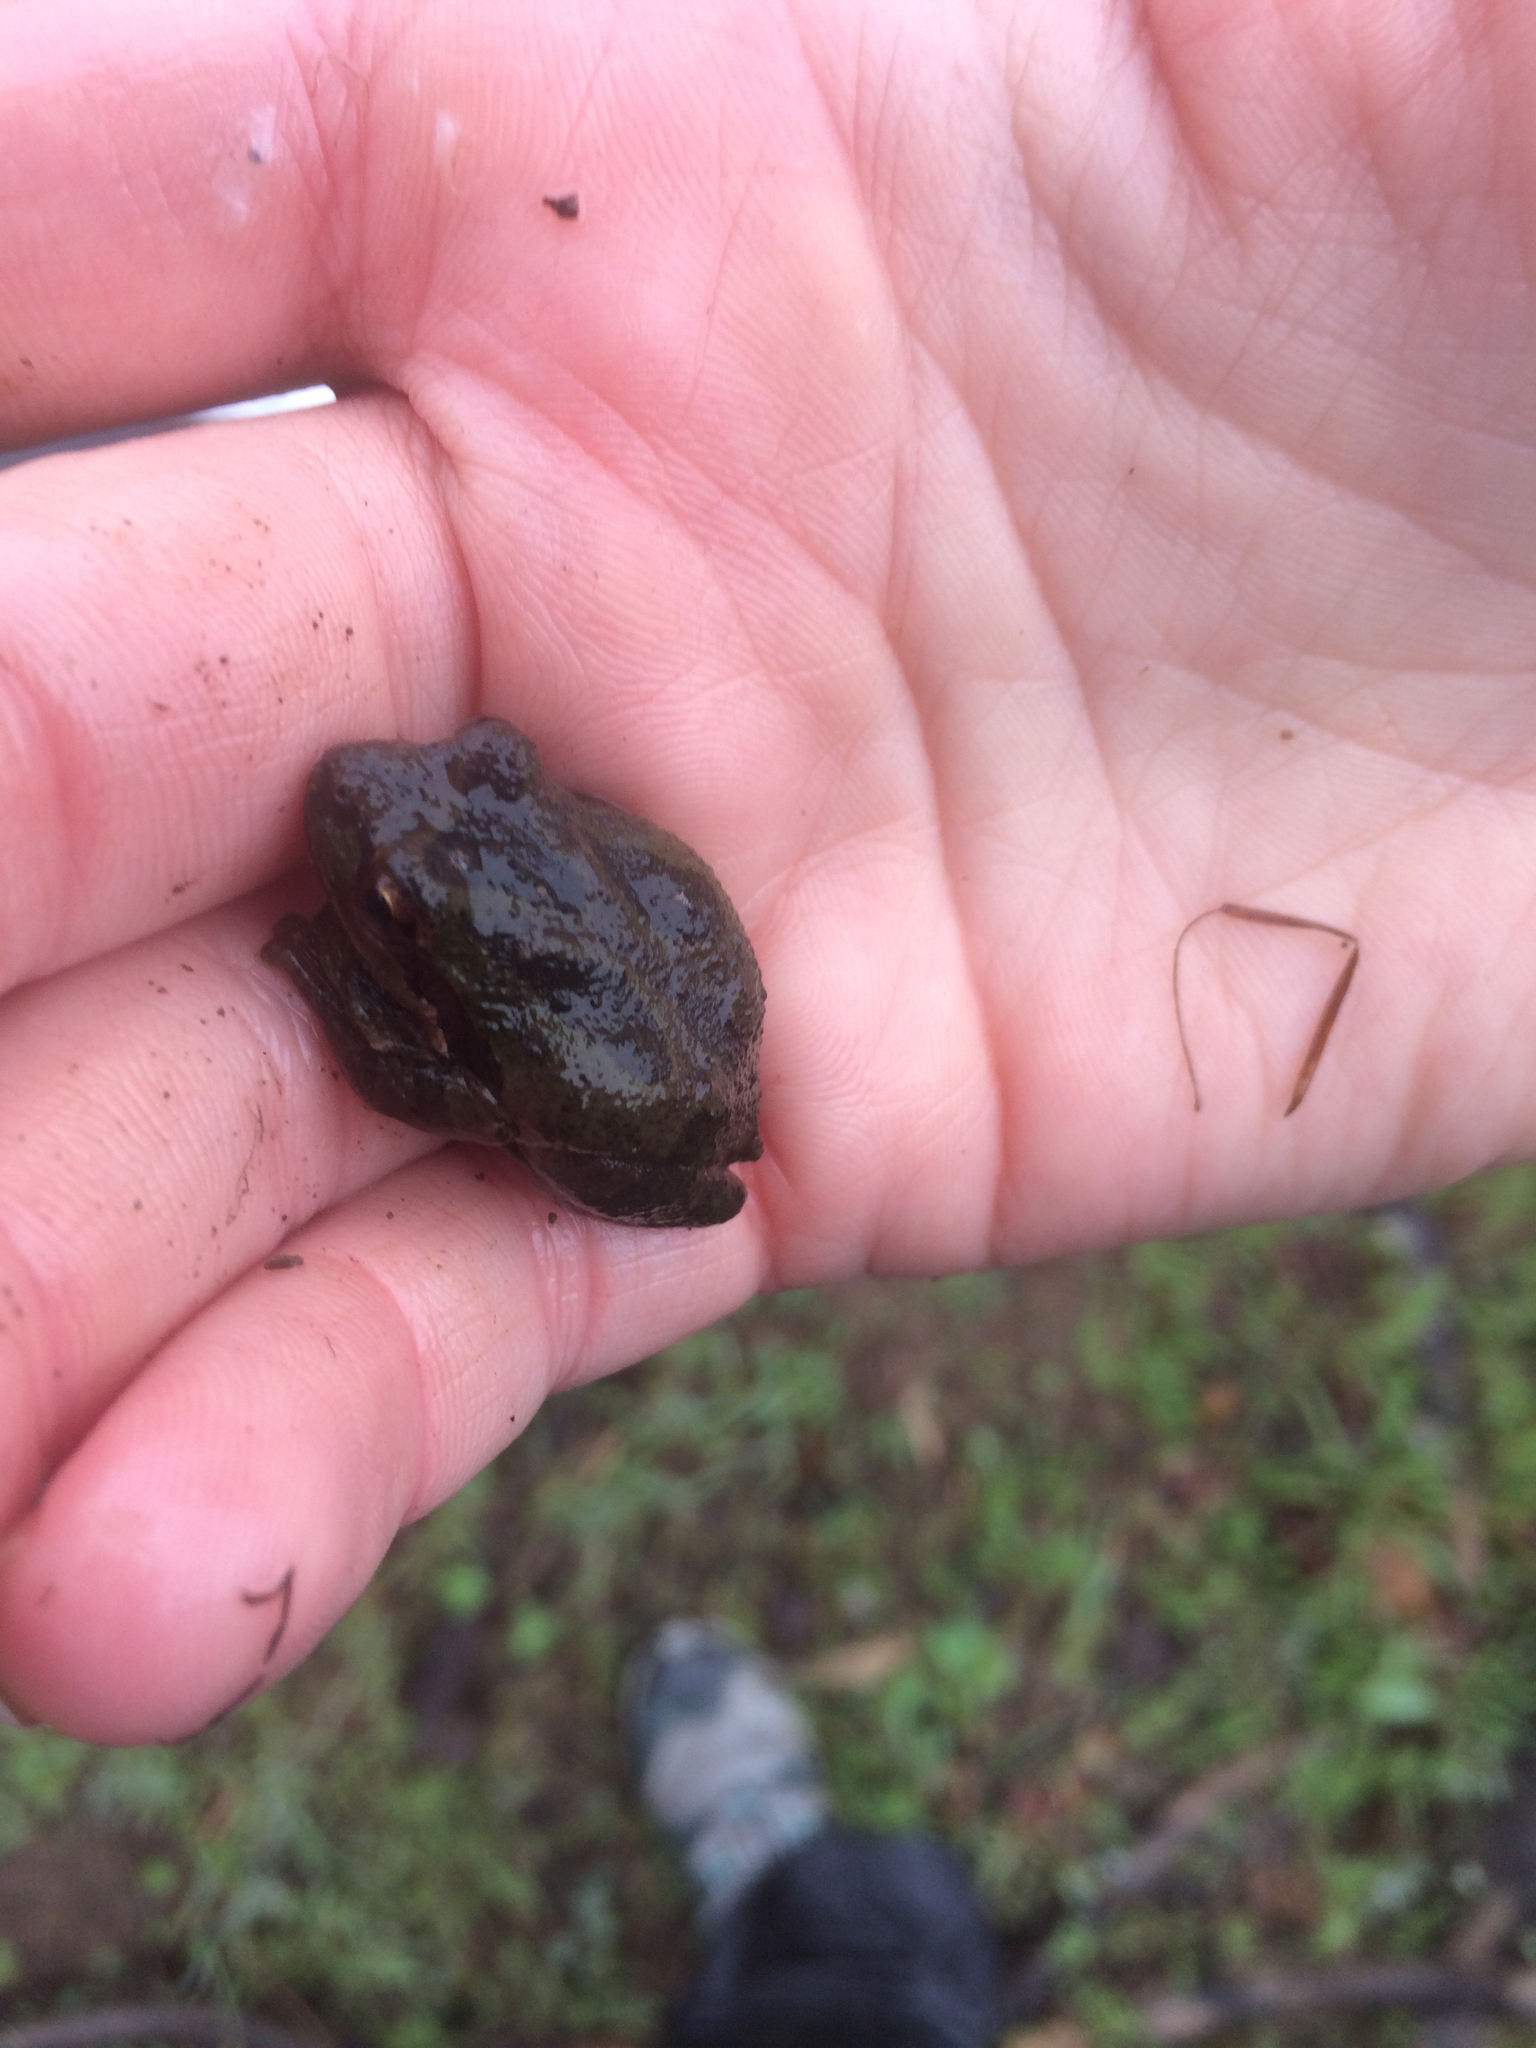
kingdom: Animalia
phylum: Chordata
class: Amphibia
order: Anura
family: Hylidae
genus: Pseudacris
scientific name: Pseudacris regilla
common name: Pacific chorus frog
